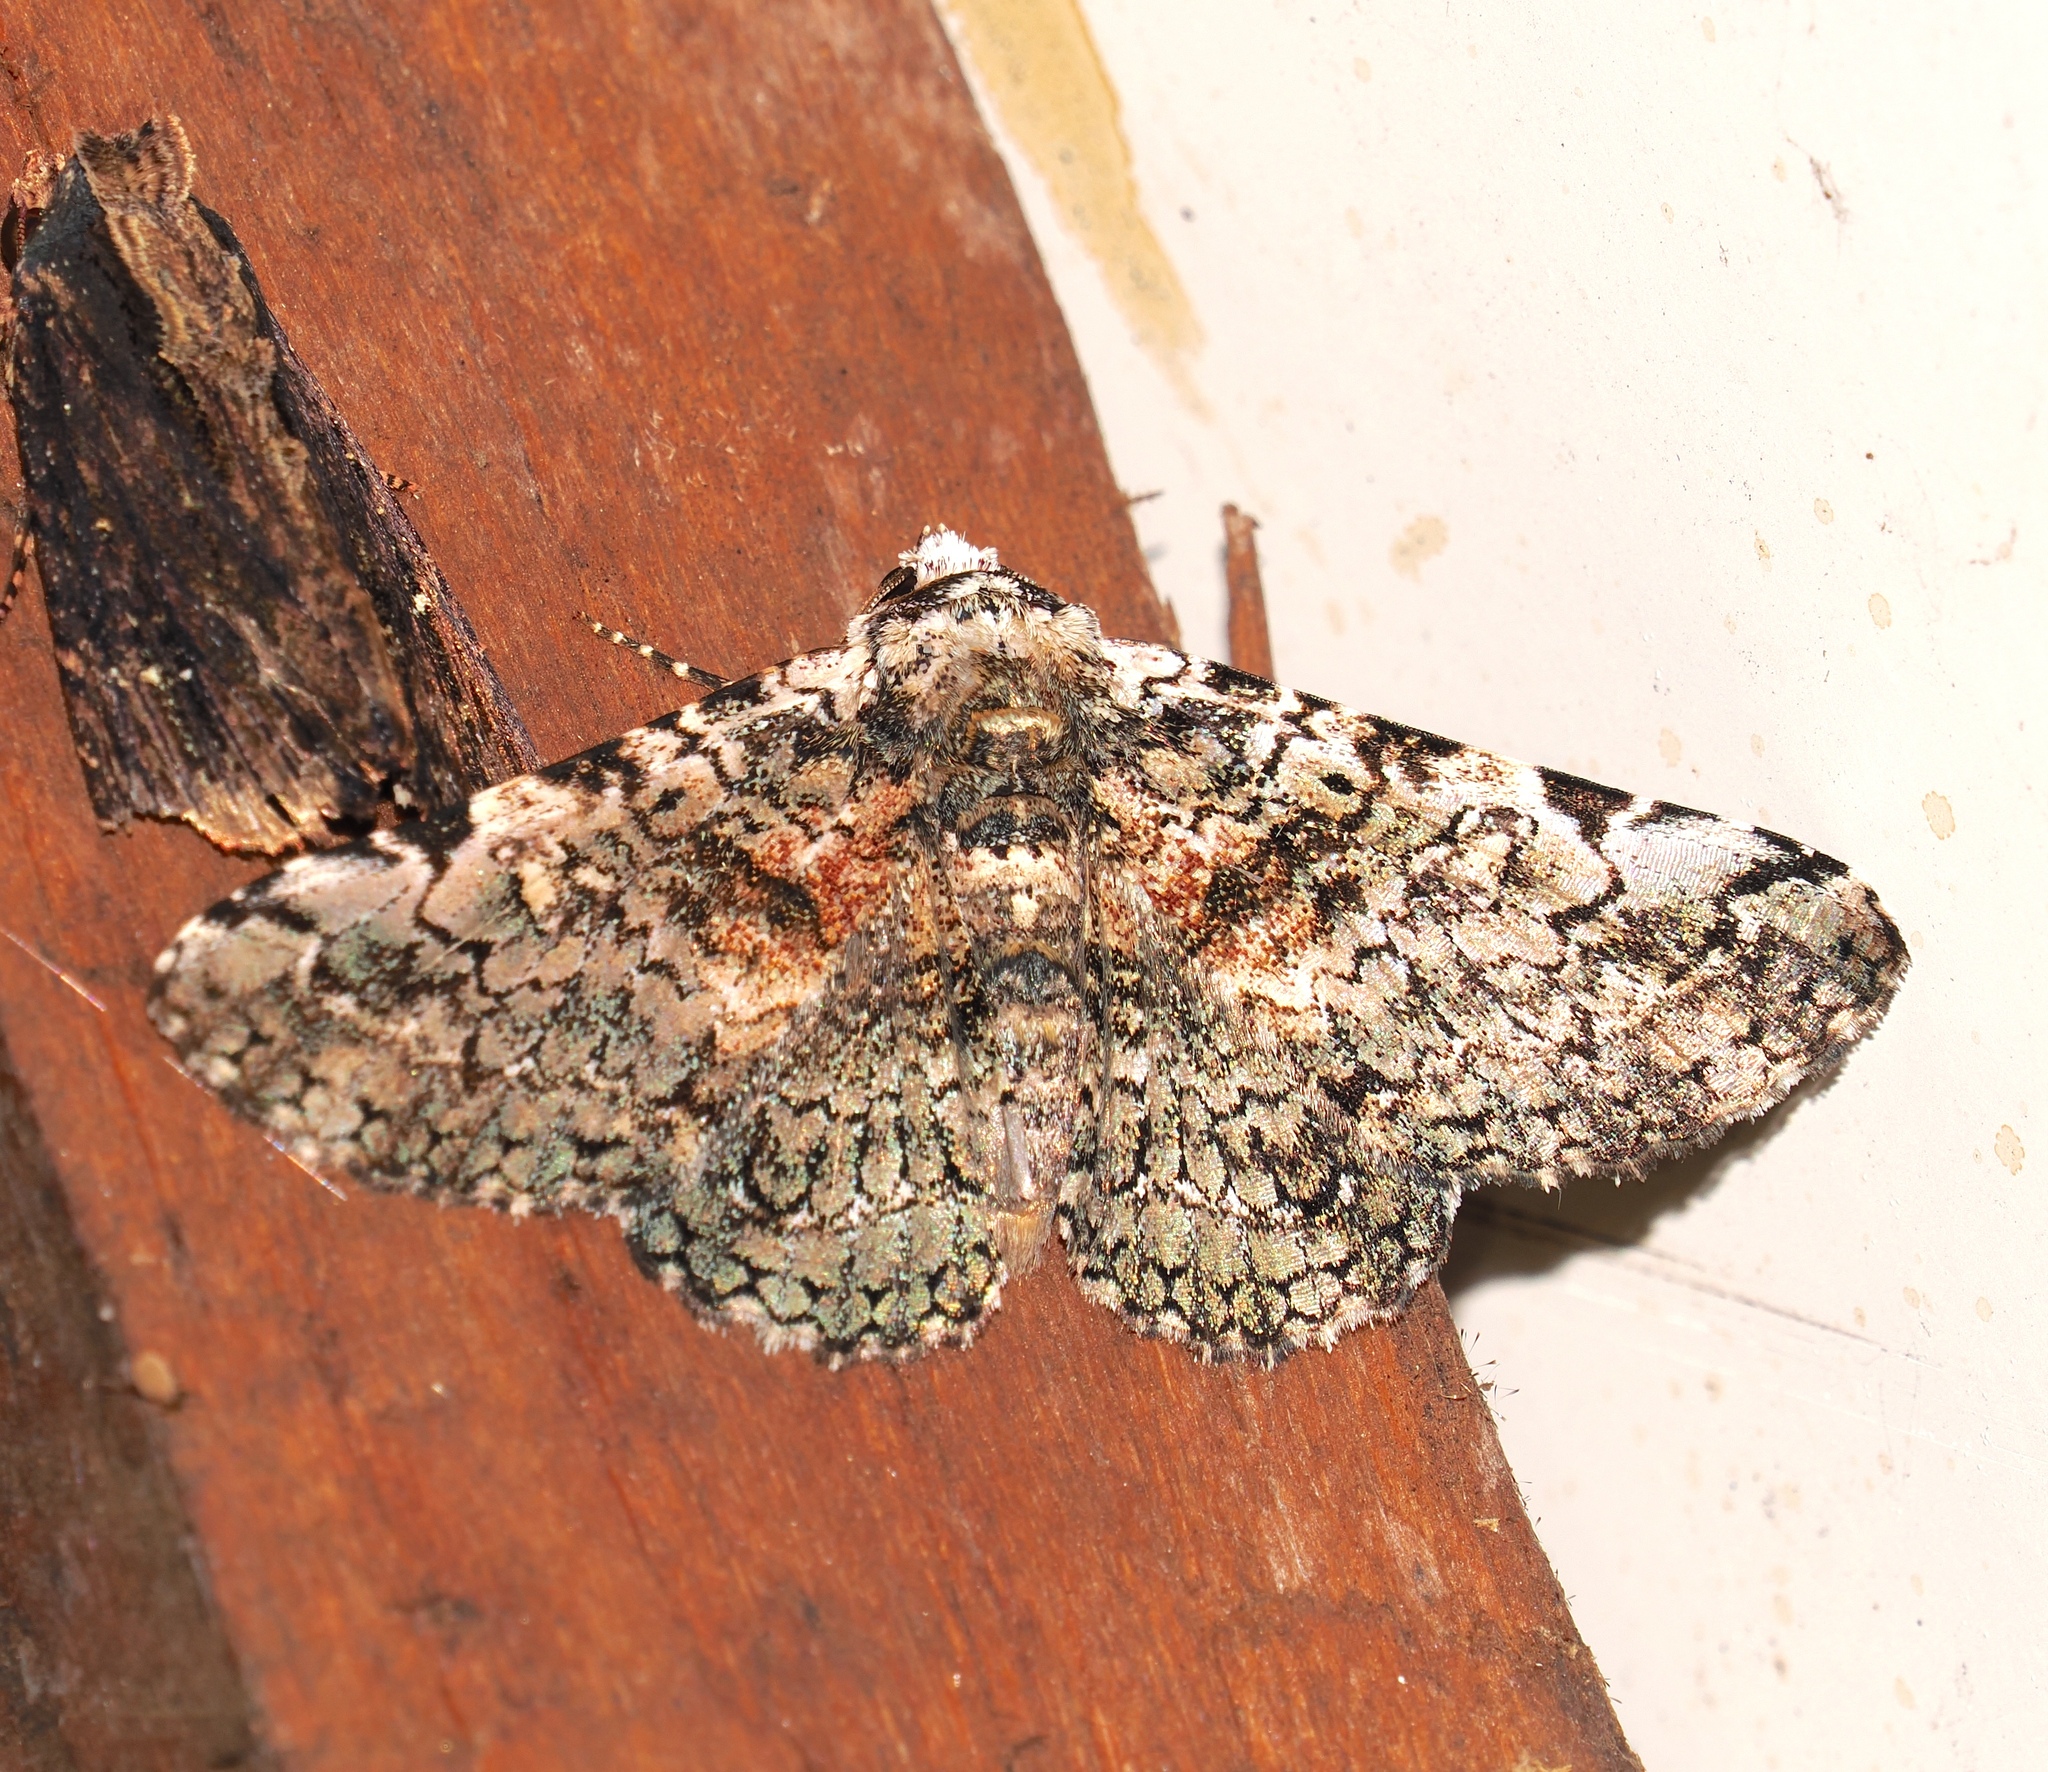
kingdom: Animalia
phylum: Arthropoda
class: Insecta
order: Lepidoptera
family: Erebidae
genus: Safia
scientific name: Safia mollis
